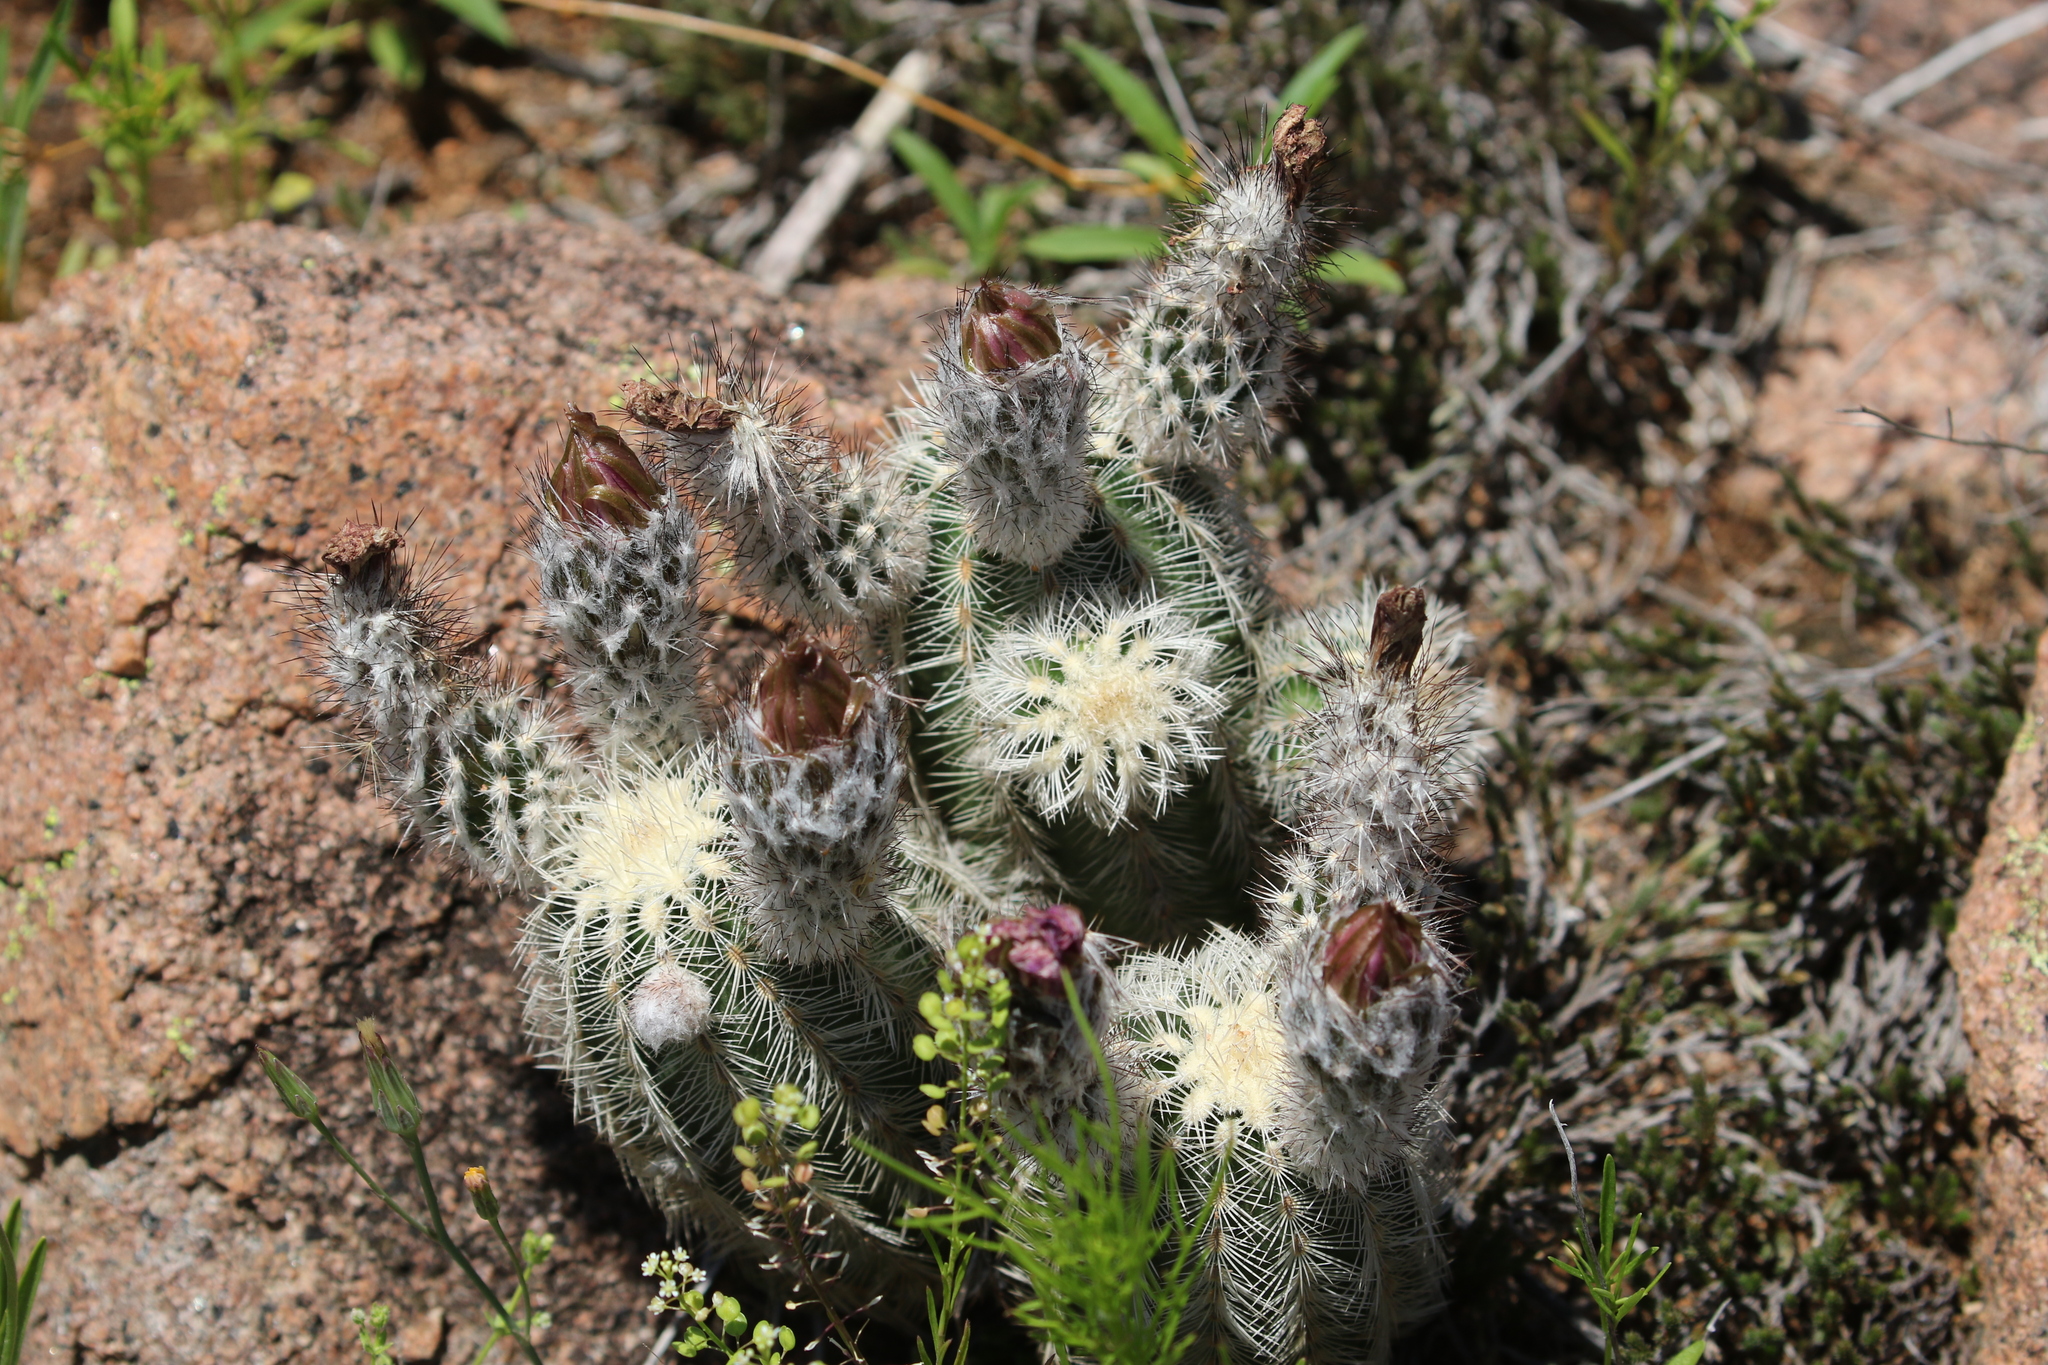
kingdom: Plantae
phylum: Tracheophyta
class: Magnoliopsida
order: Caryophyllales
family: Cactaceae
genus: Echinocereus
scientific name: Echinocereus reichenbachii
